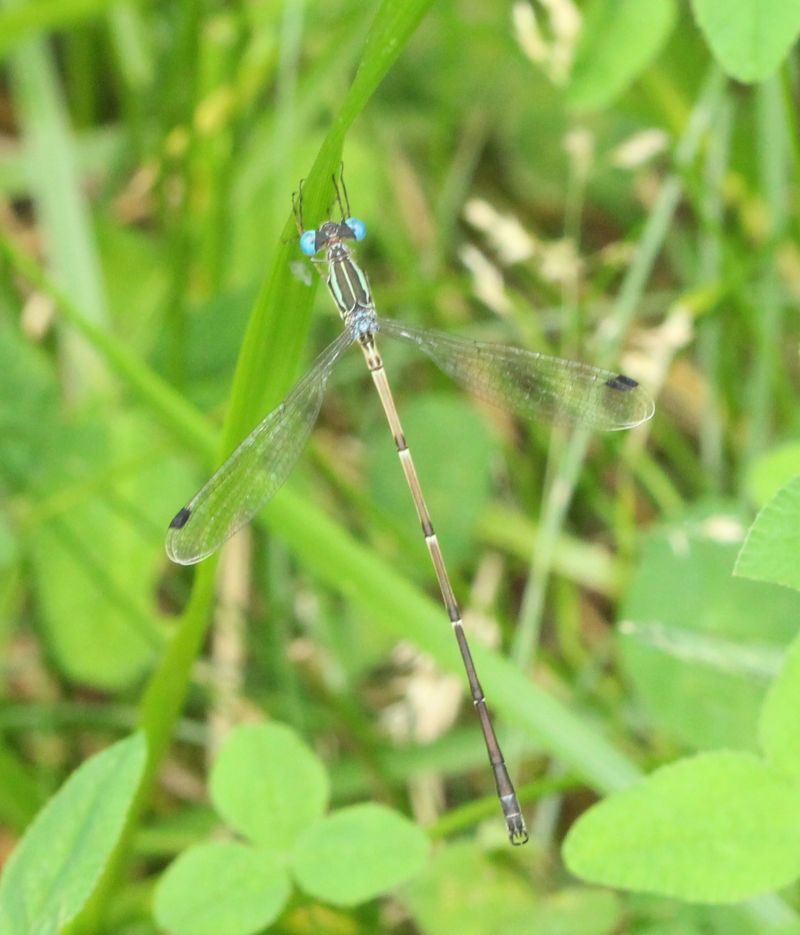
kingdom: Animalia
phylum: Arthropoda
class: Insecta
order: Odonata
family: Lestidae
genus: Lestes
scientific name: Lestes rectangularis
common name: Slender spreadwing
